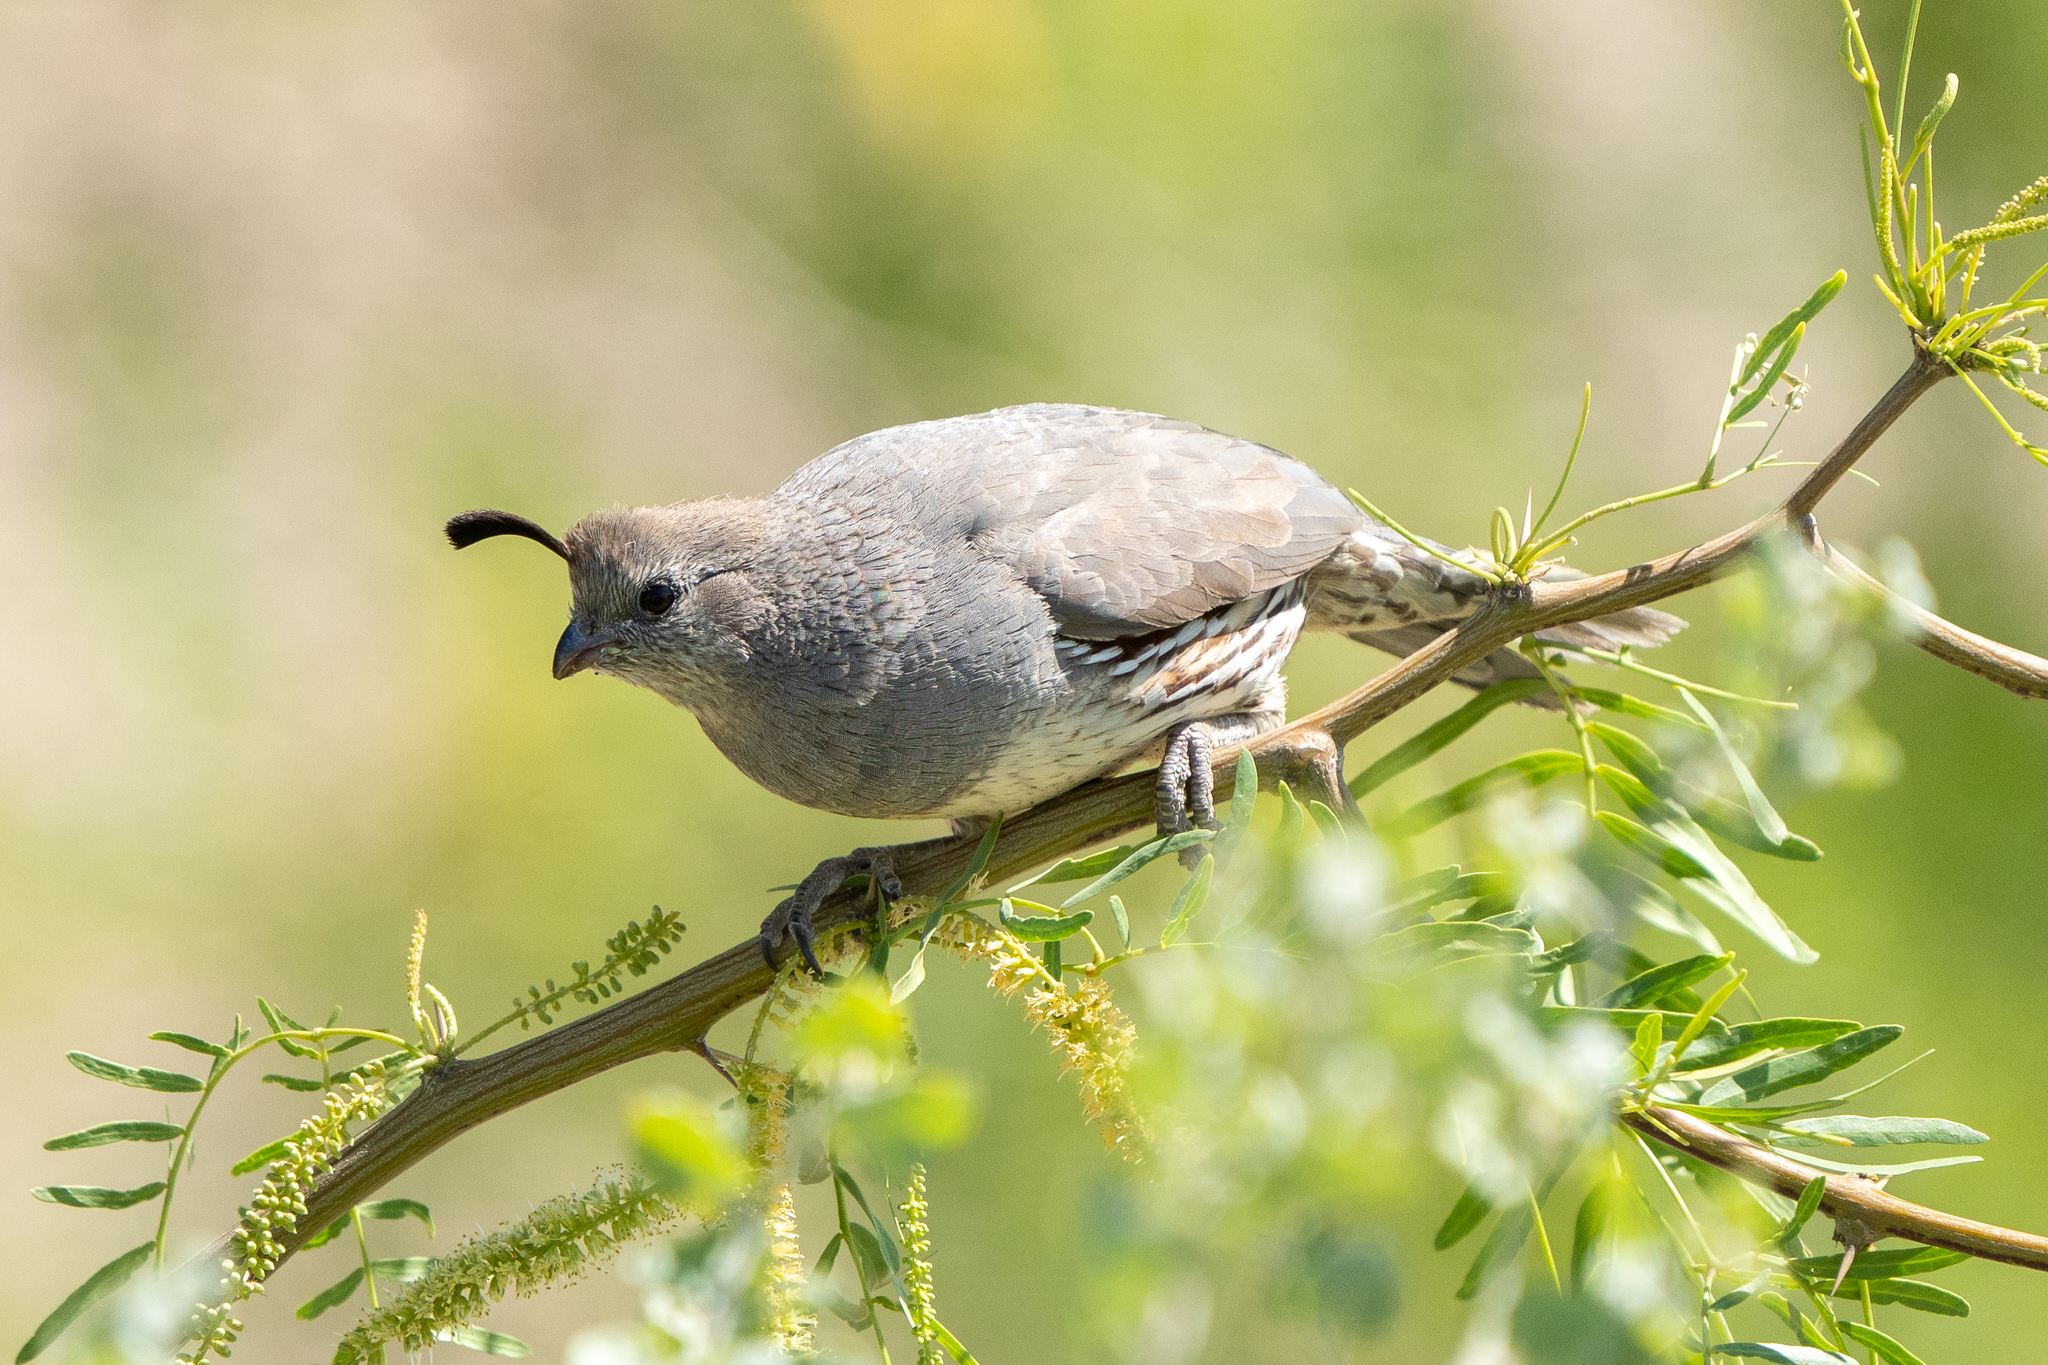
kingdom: Animalia
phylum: Chordata
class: Aves
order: Galliformes
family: Odontophoridae
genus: Callipepla
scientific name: Callipepla gambelii
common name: Gambel's quail
